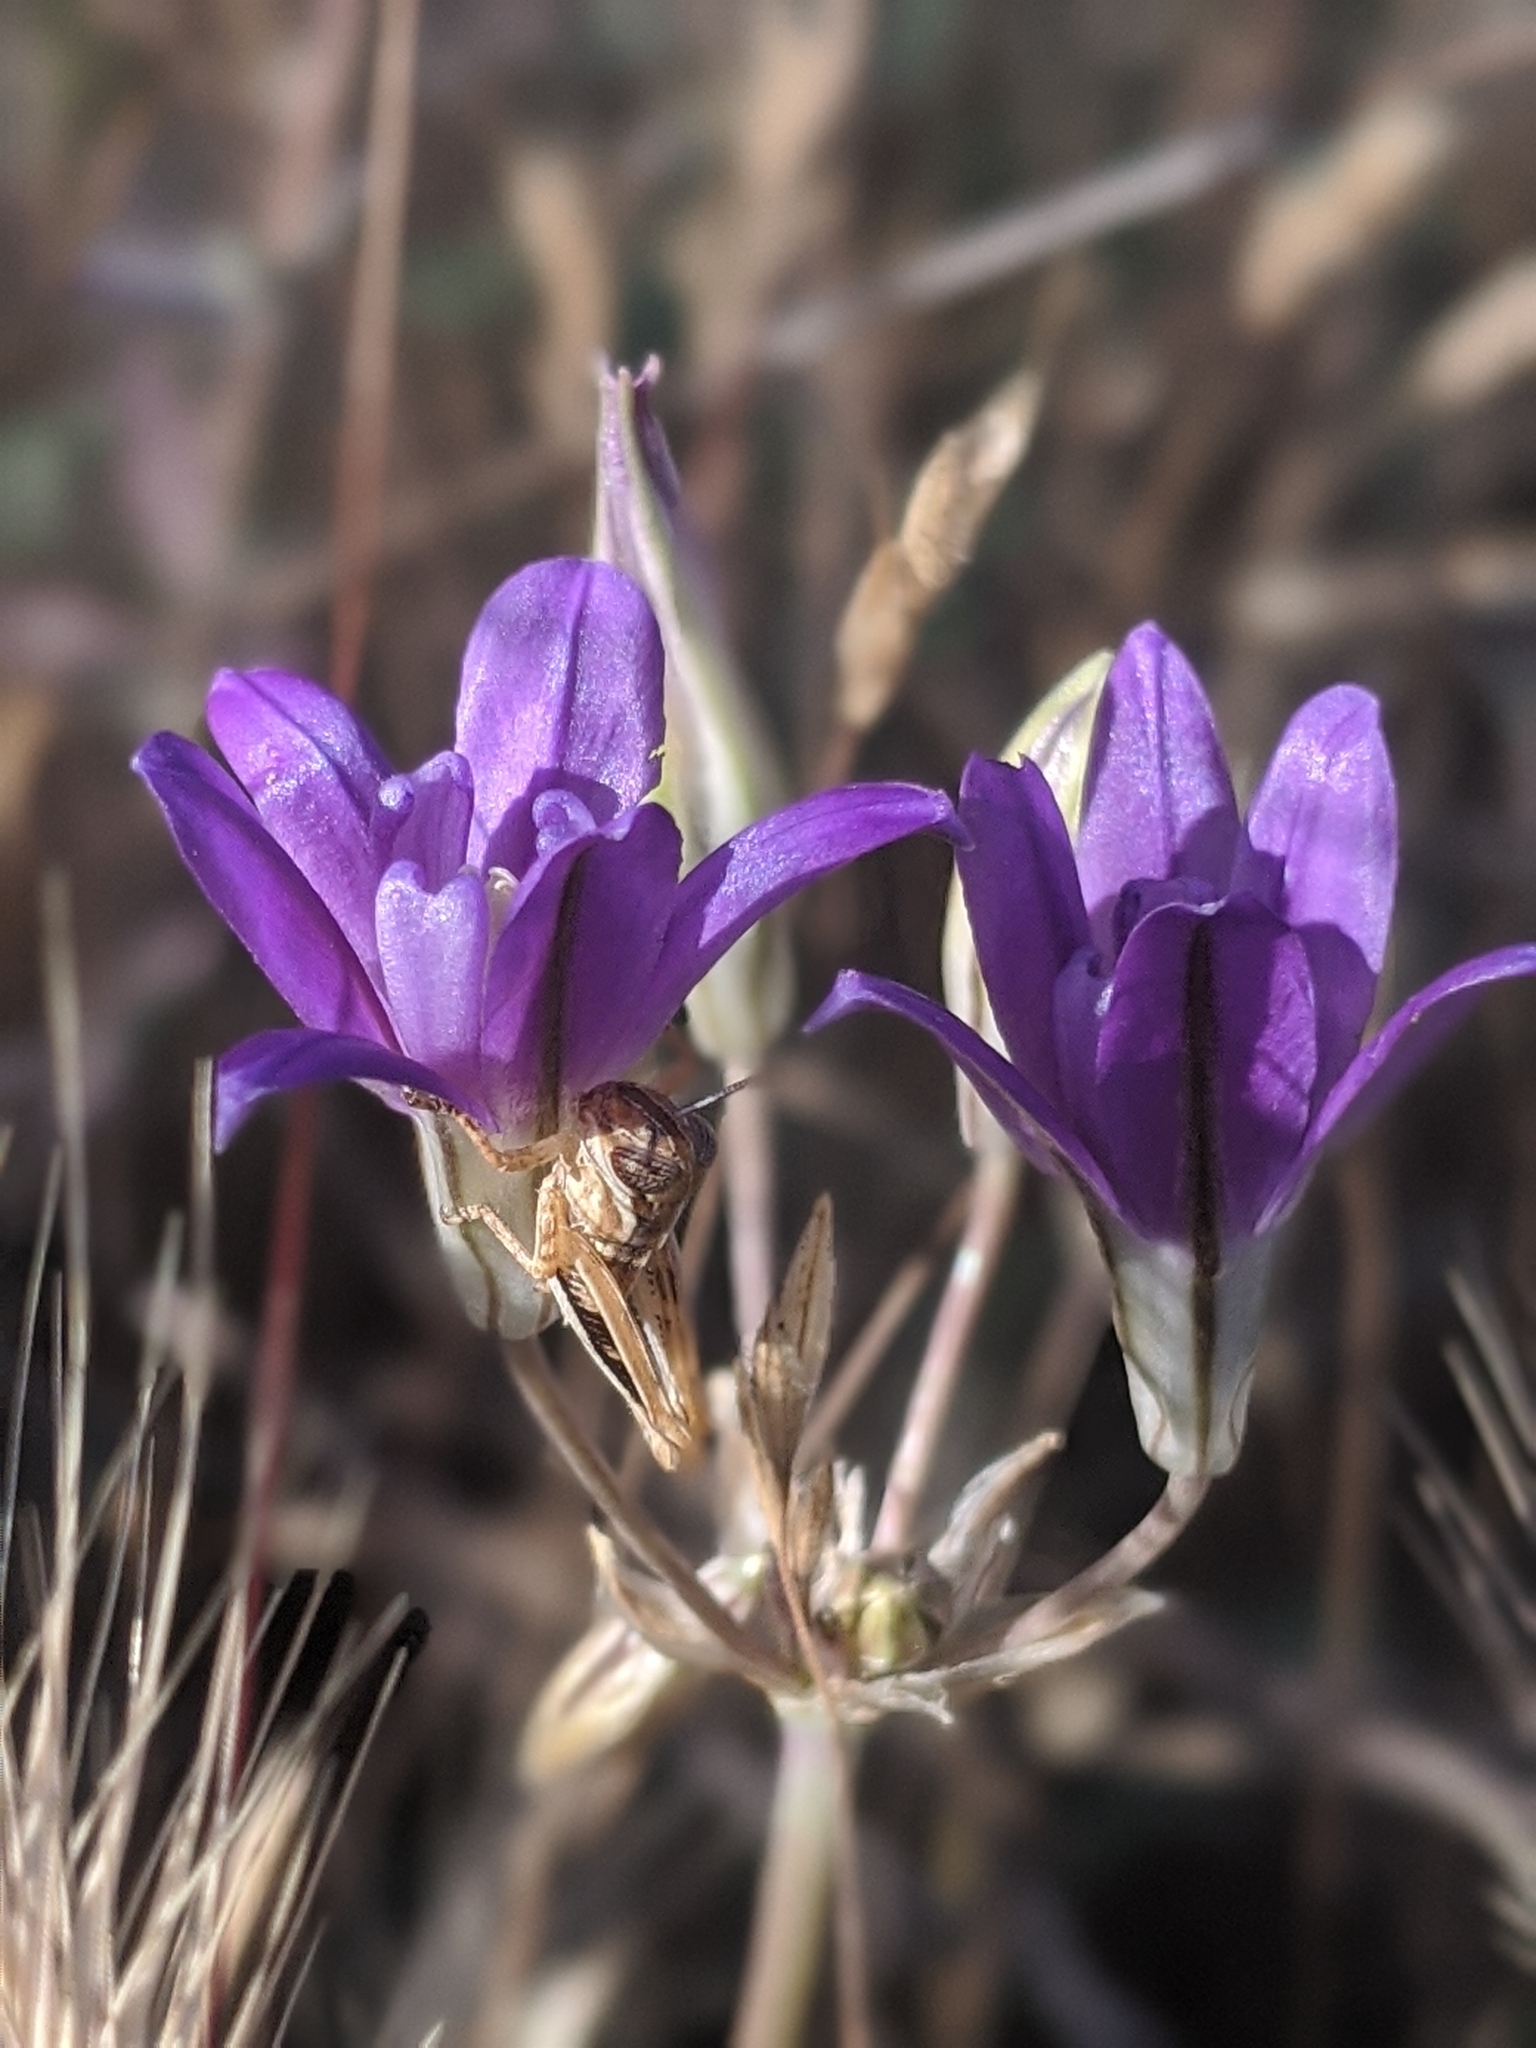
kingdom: Plantae
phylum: Tracheophyta
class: Liliopsida
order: Asparagales
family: Asparagaceae
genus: Brodiaea
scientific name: Brodiaea jolonensis
